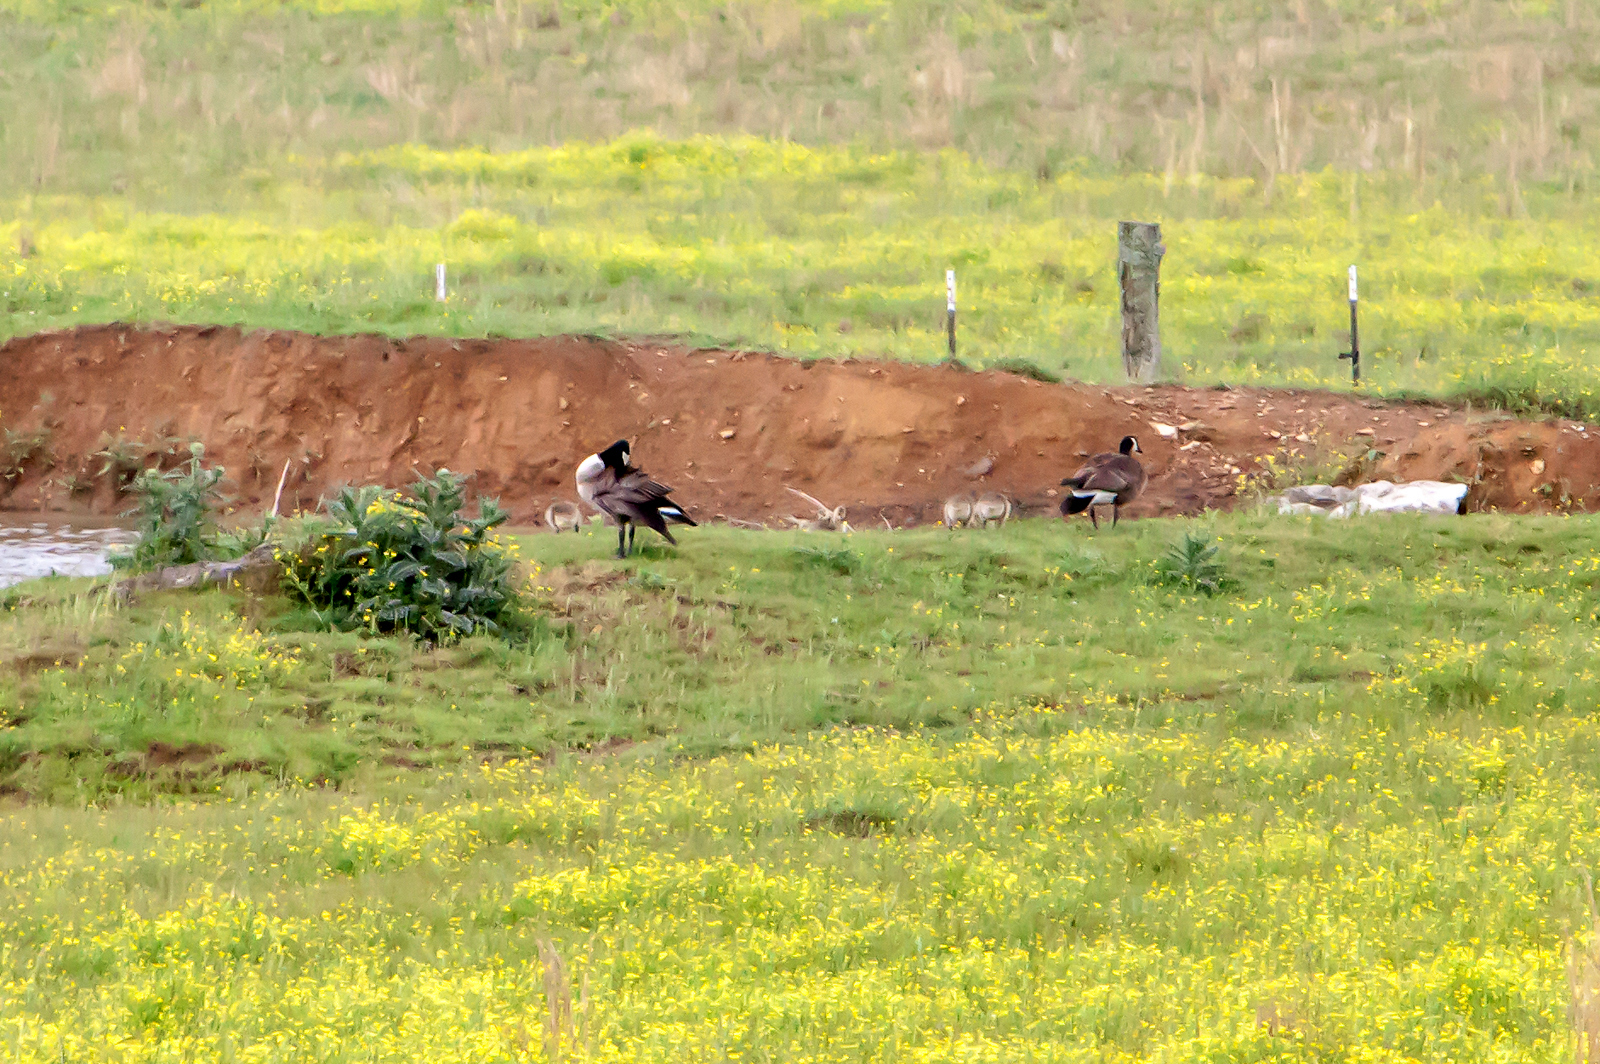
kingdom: Animalia
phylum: Chordata
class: Aves
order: Anseriformes
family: Anatidae
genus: Branta
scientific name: Branta canadensis
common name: Canada goose
